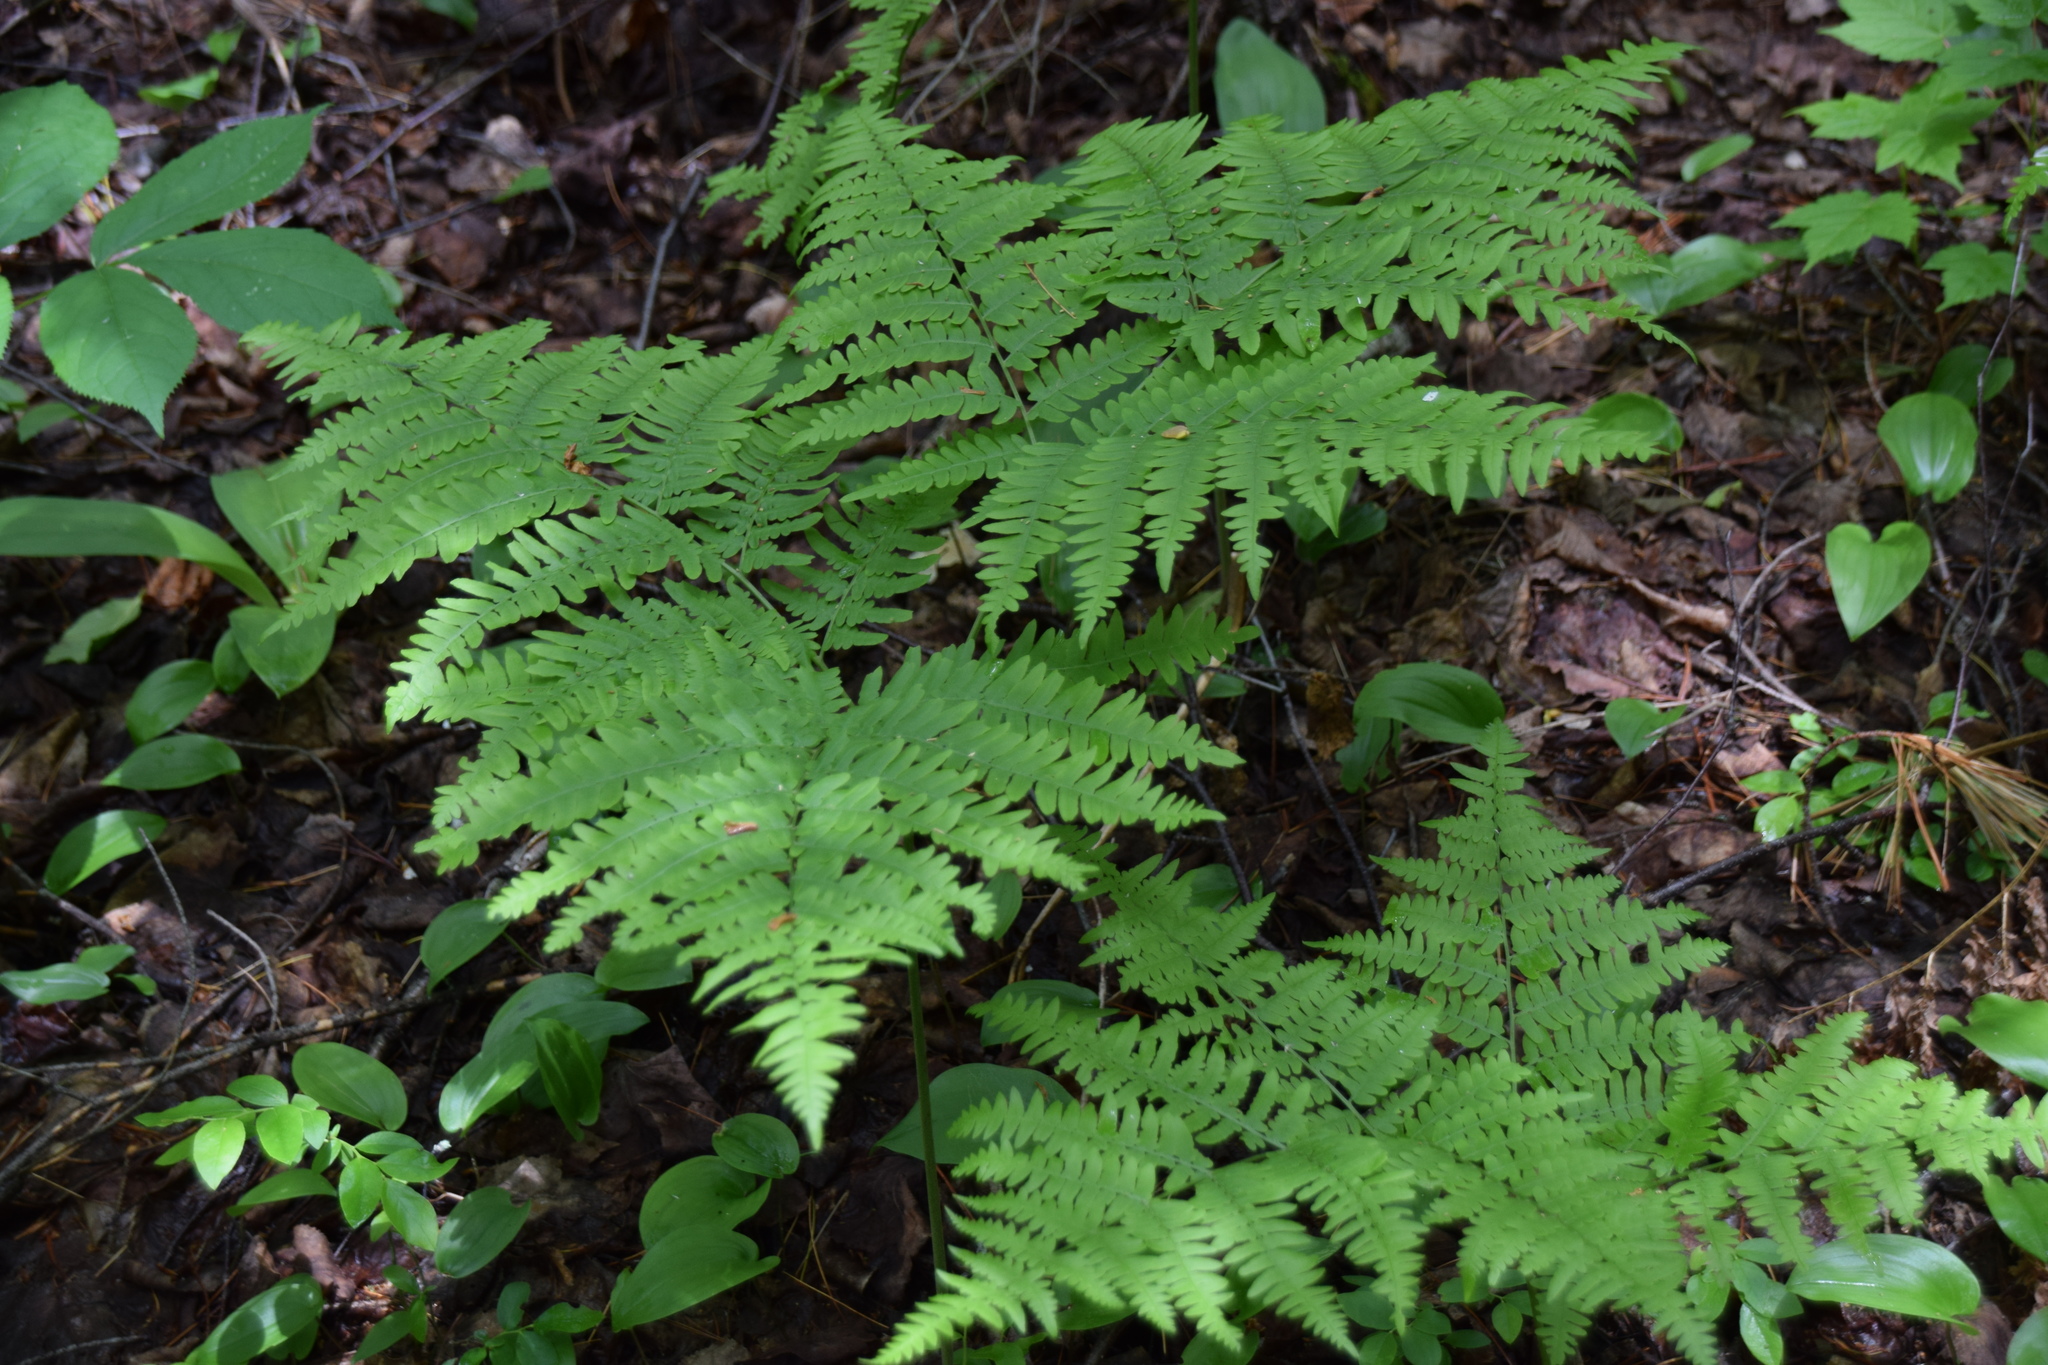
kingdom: Plantae
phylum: Tracheophyta
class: Polypodiopsida
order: Polypodiales
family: Dennstaedtiaceae
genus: Pteridium
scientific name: Pteridium aquilinum
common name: Bracken
